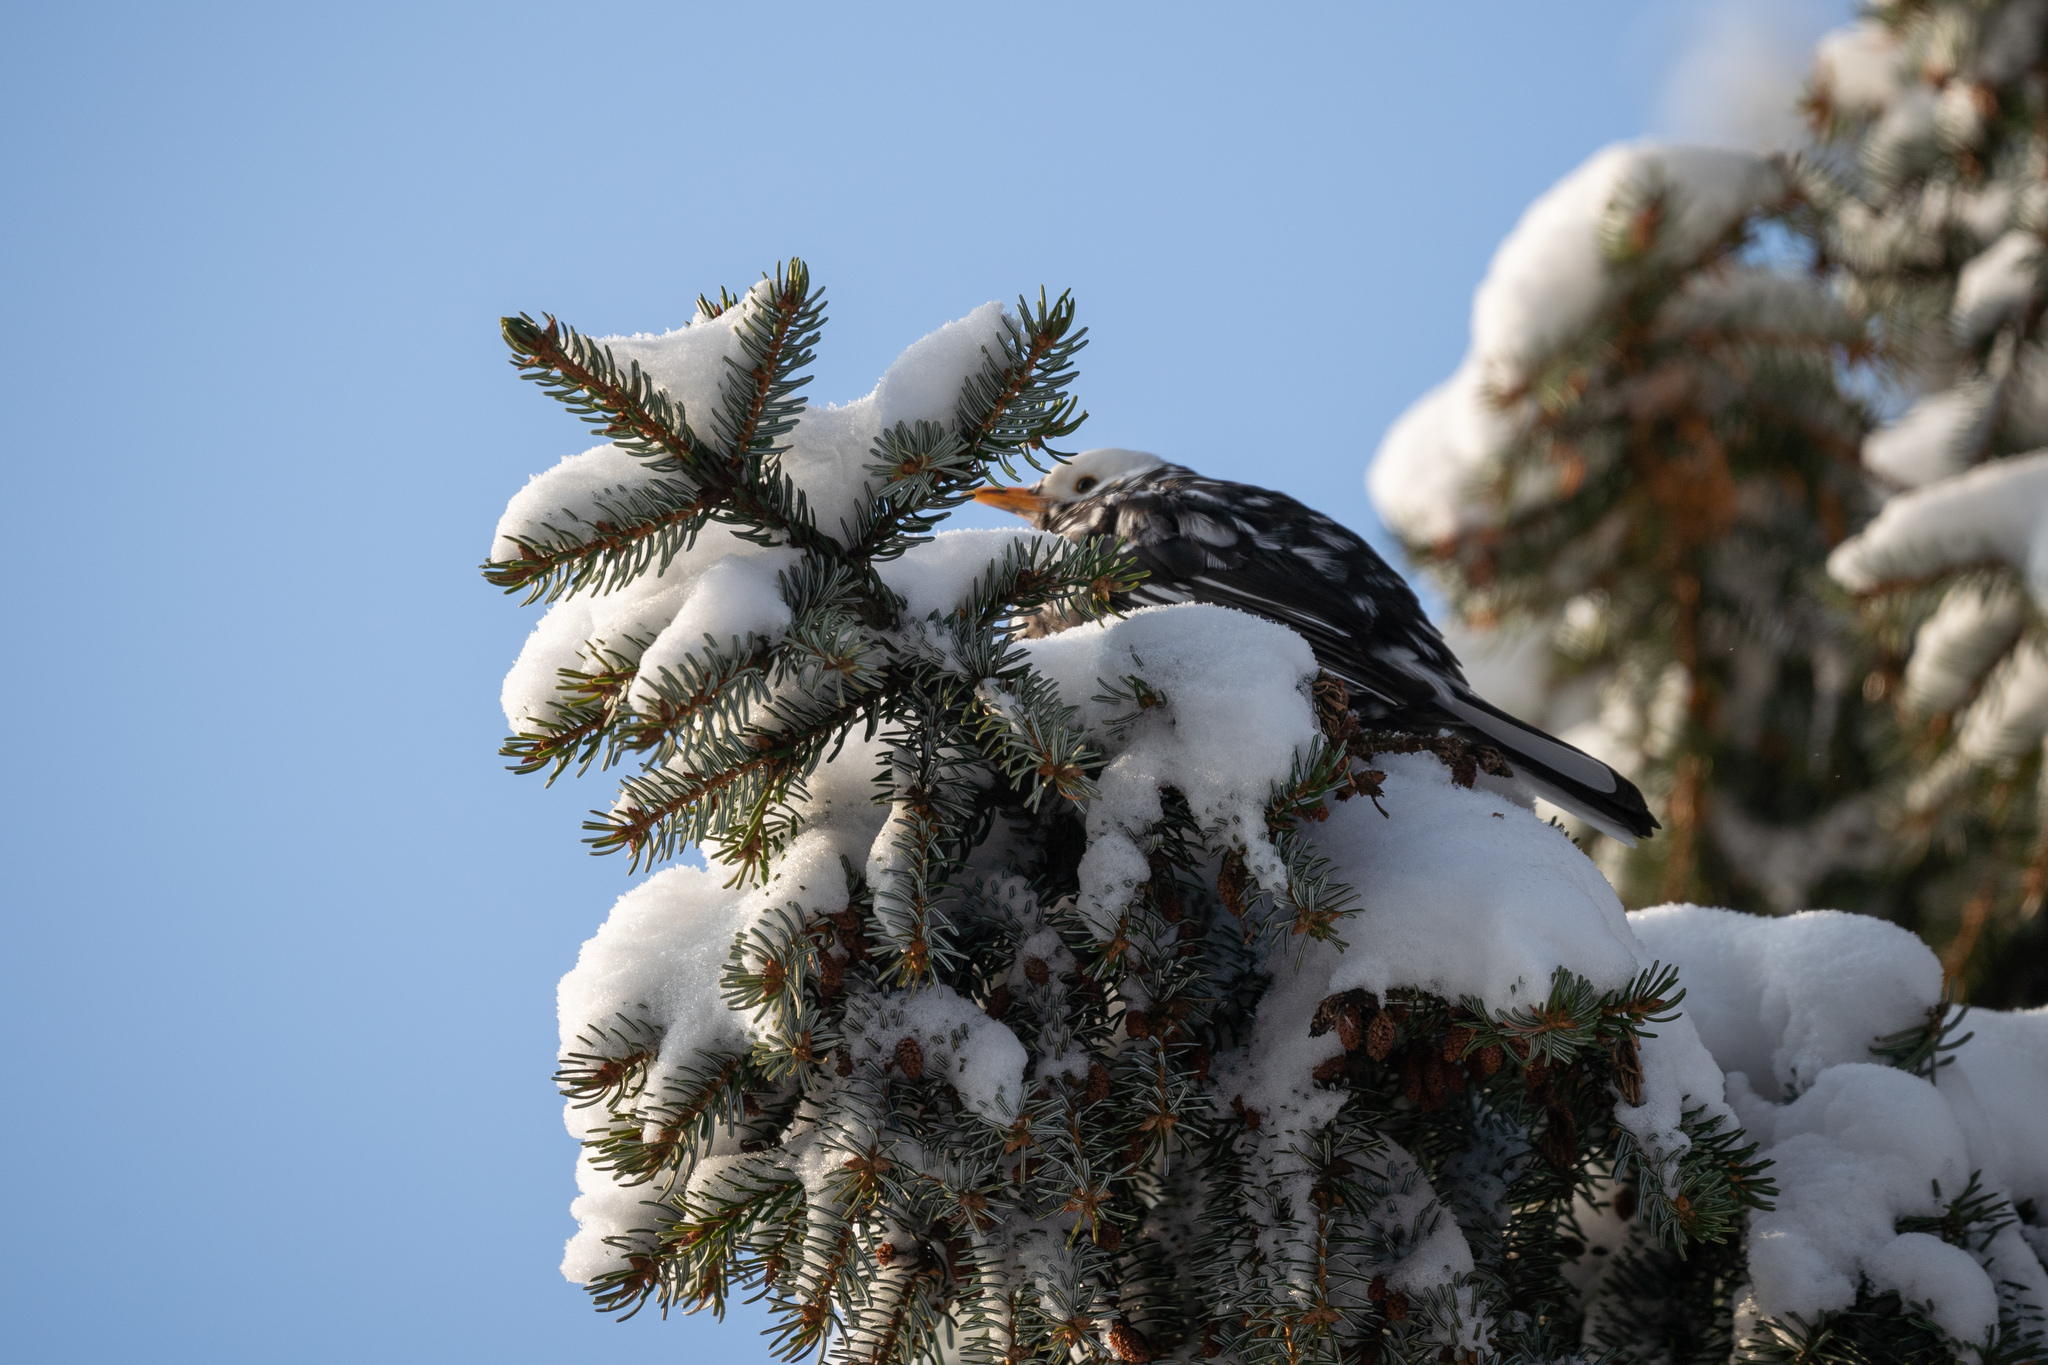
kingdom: Animalia
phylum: Chordata
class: Aves
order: Passeriformes
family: Turdidae
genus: Turdus
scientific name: Turdus merula
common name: Common blackbird
